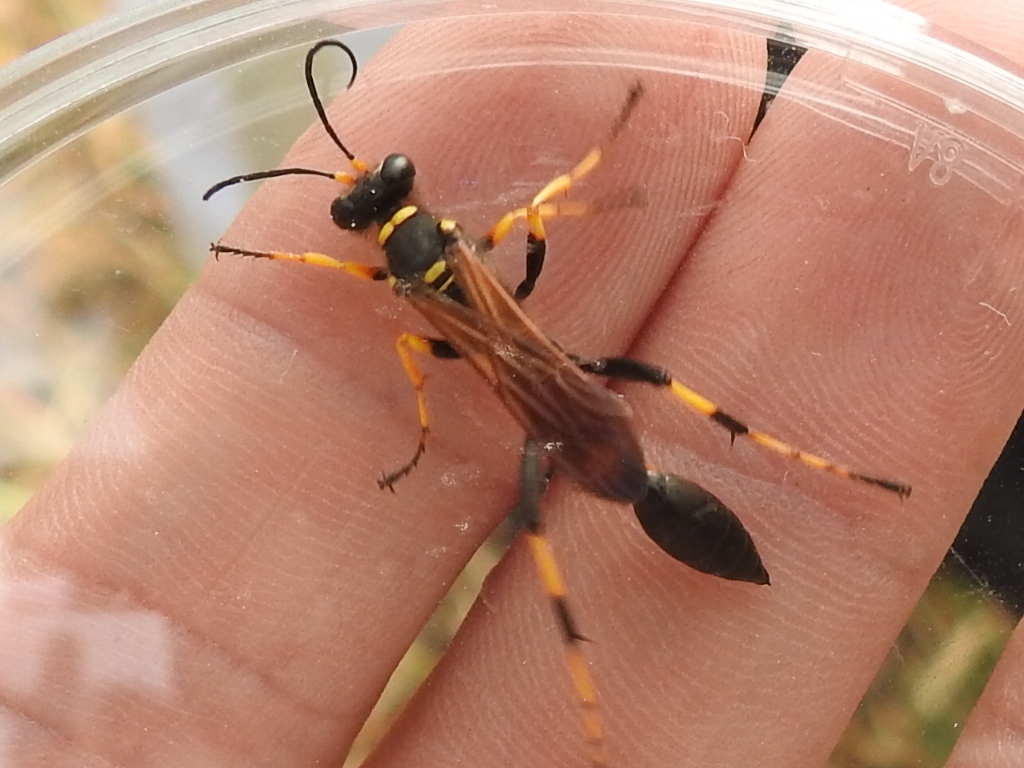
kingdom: Animalia
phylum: Arthropoda
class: Insecta
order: Hymenoptera
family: Sphecidae
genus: Sceliphron
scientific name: Sceliphron caementarium
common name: Mud dauber
